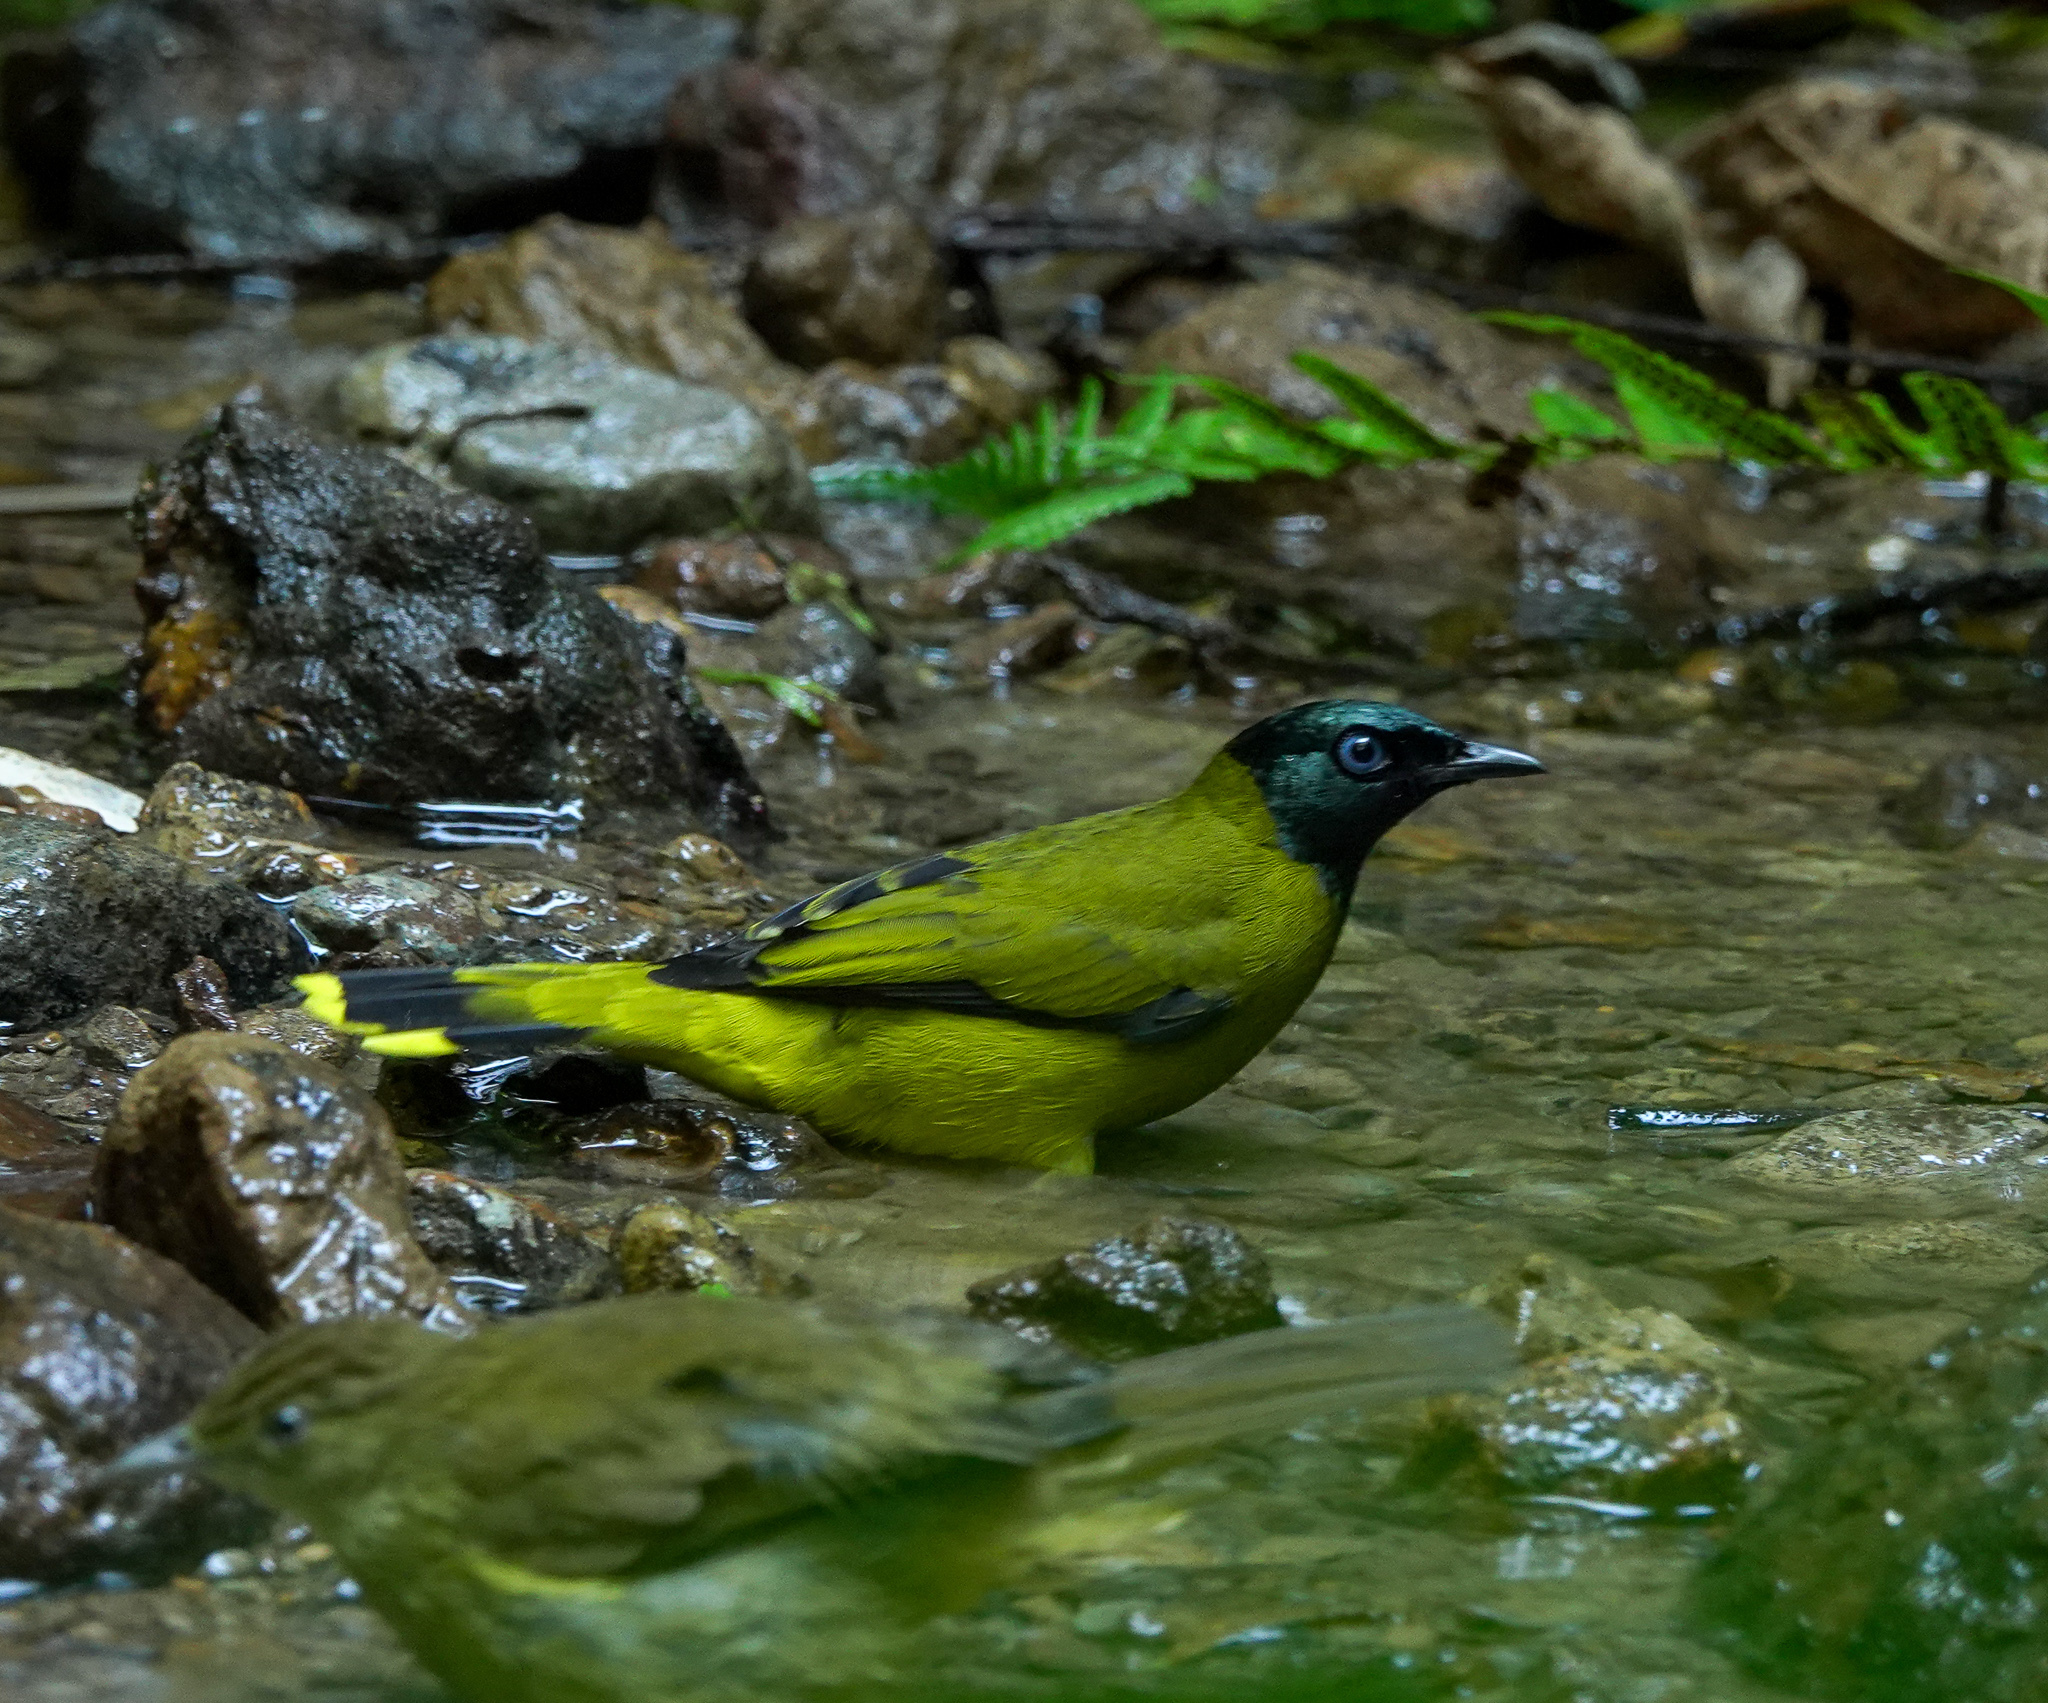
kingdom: Animalia
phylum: Chordata
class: Aves
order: Passeriformes
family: Pycnonotidae
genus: Microtarsus
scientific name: Microtarsus
